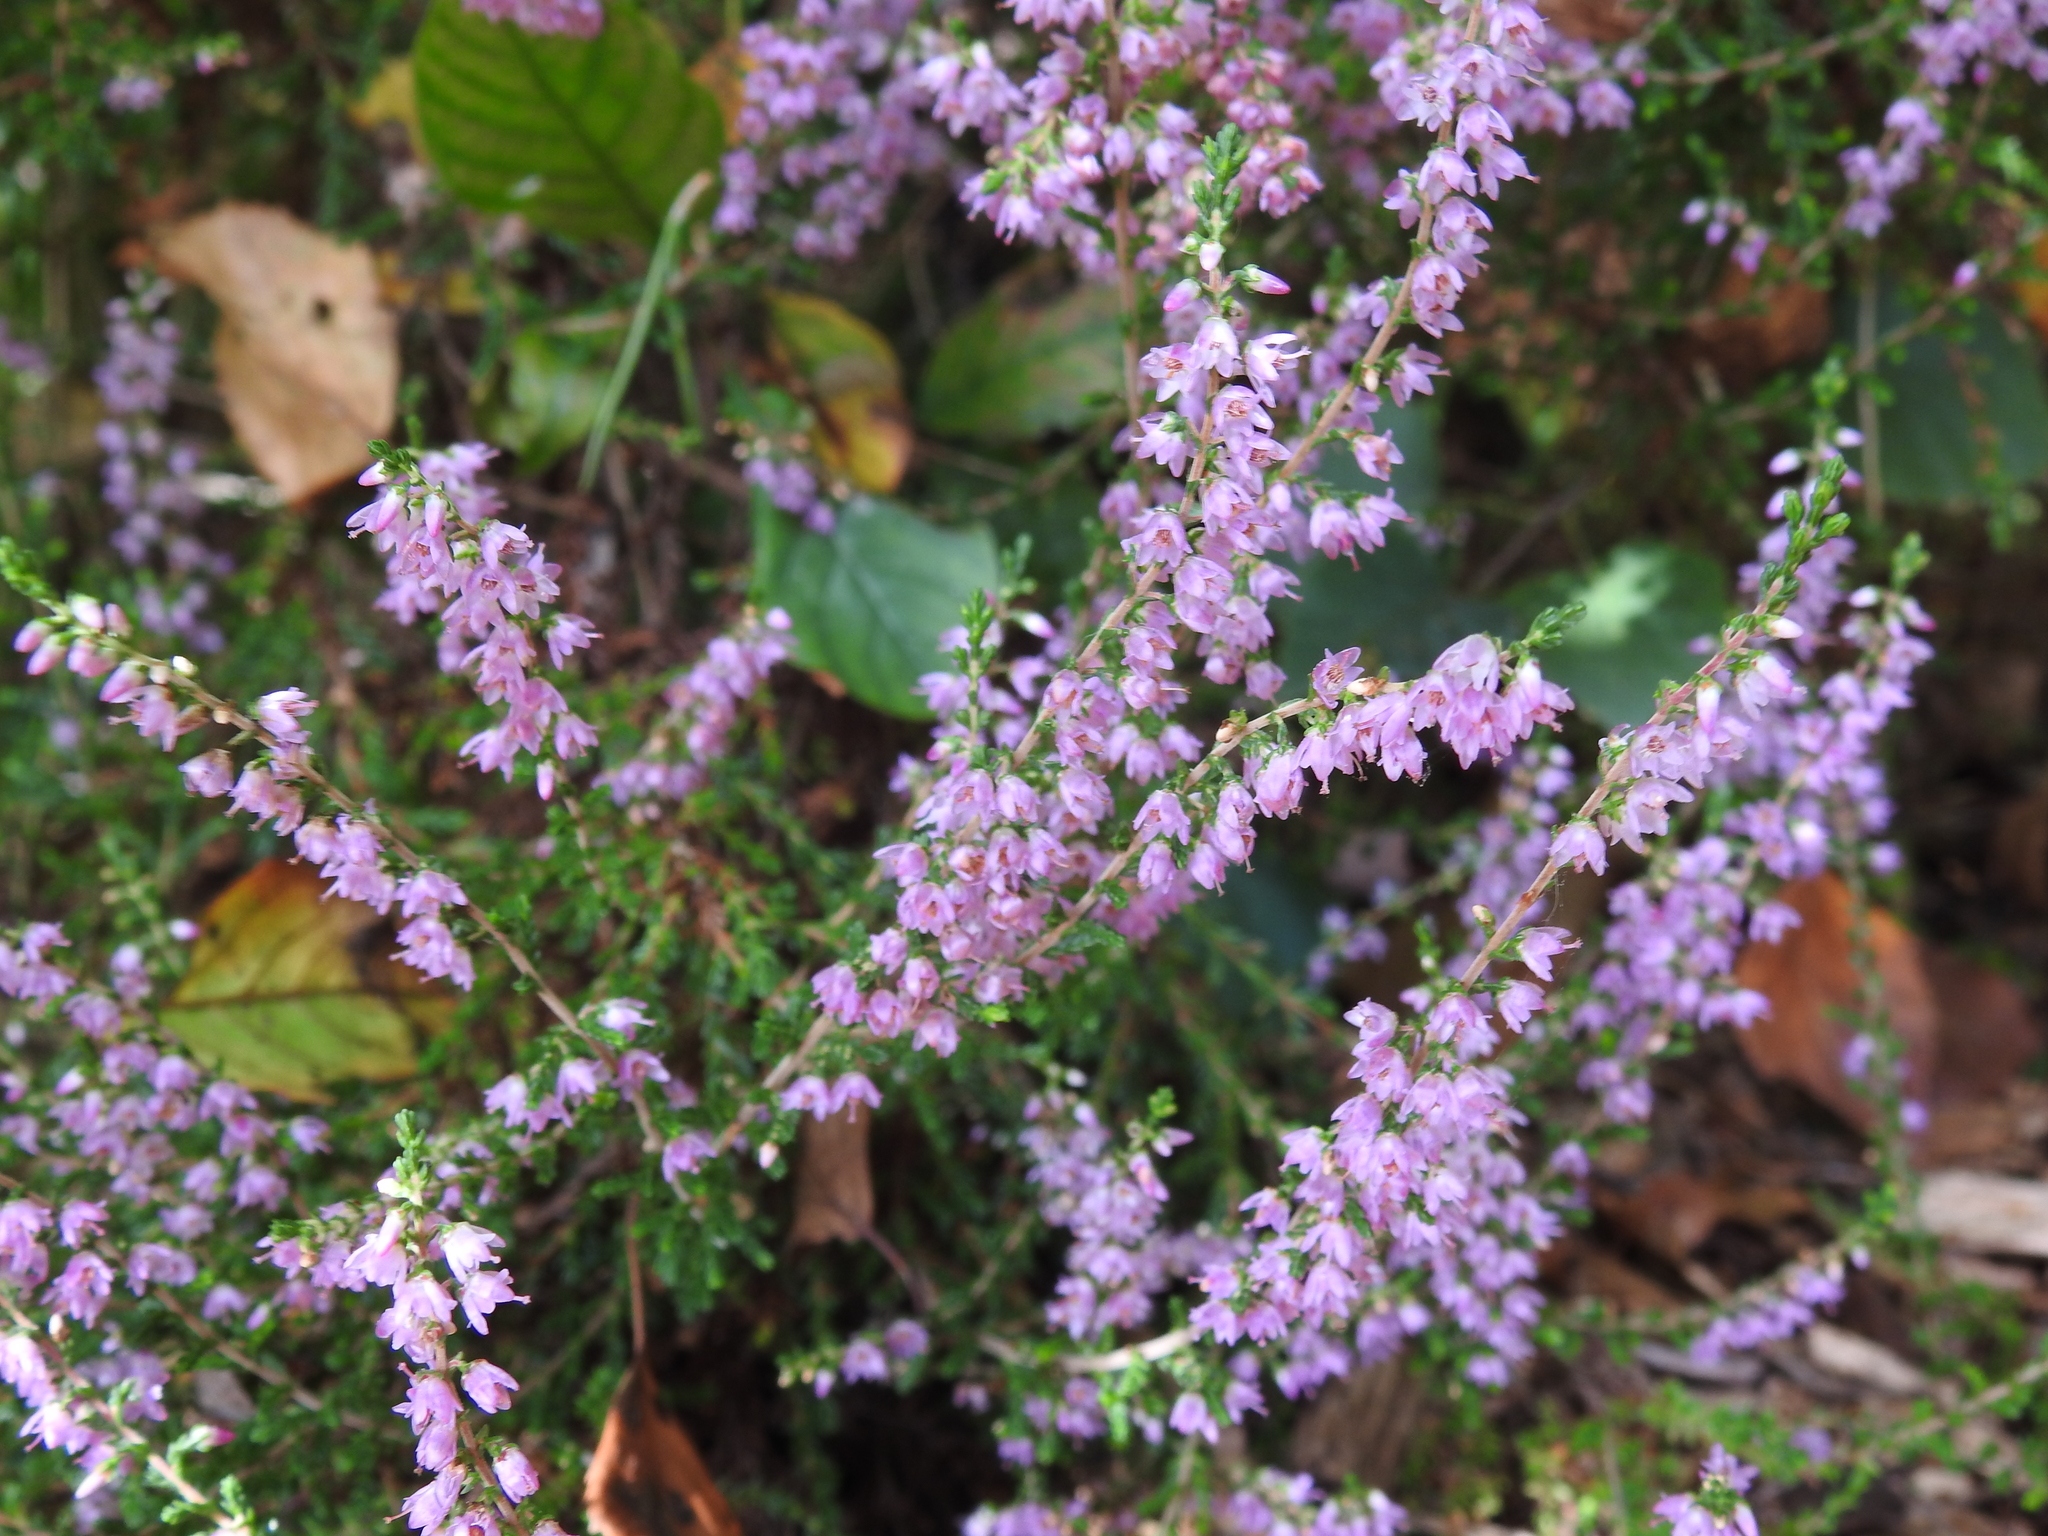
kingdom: Plantae
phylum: Tracheophyta
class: Magnoliopsida
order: Ericales
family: Ericaceae
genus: Calluna
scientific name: Calluna vulgaris
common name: Heather
